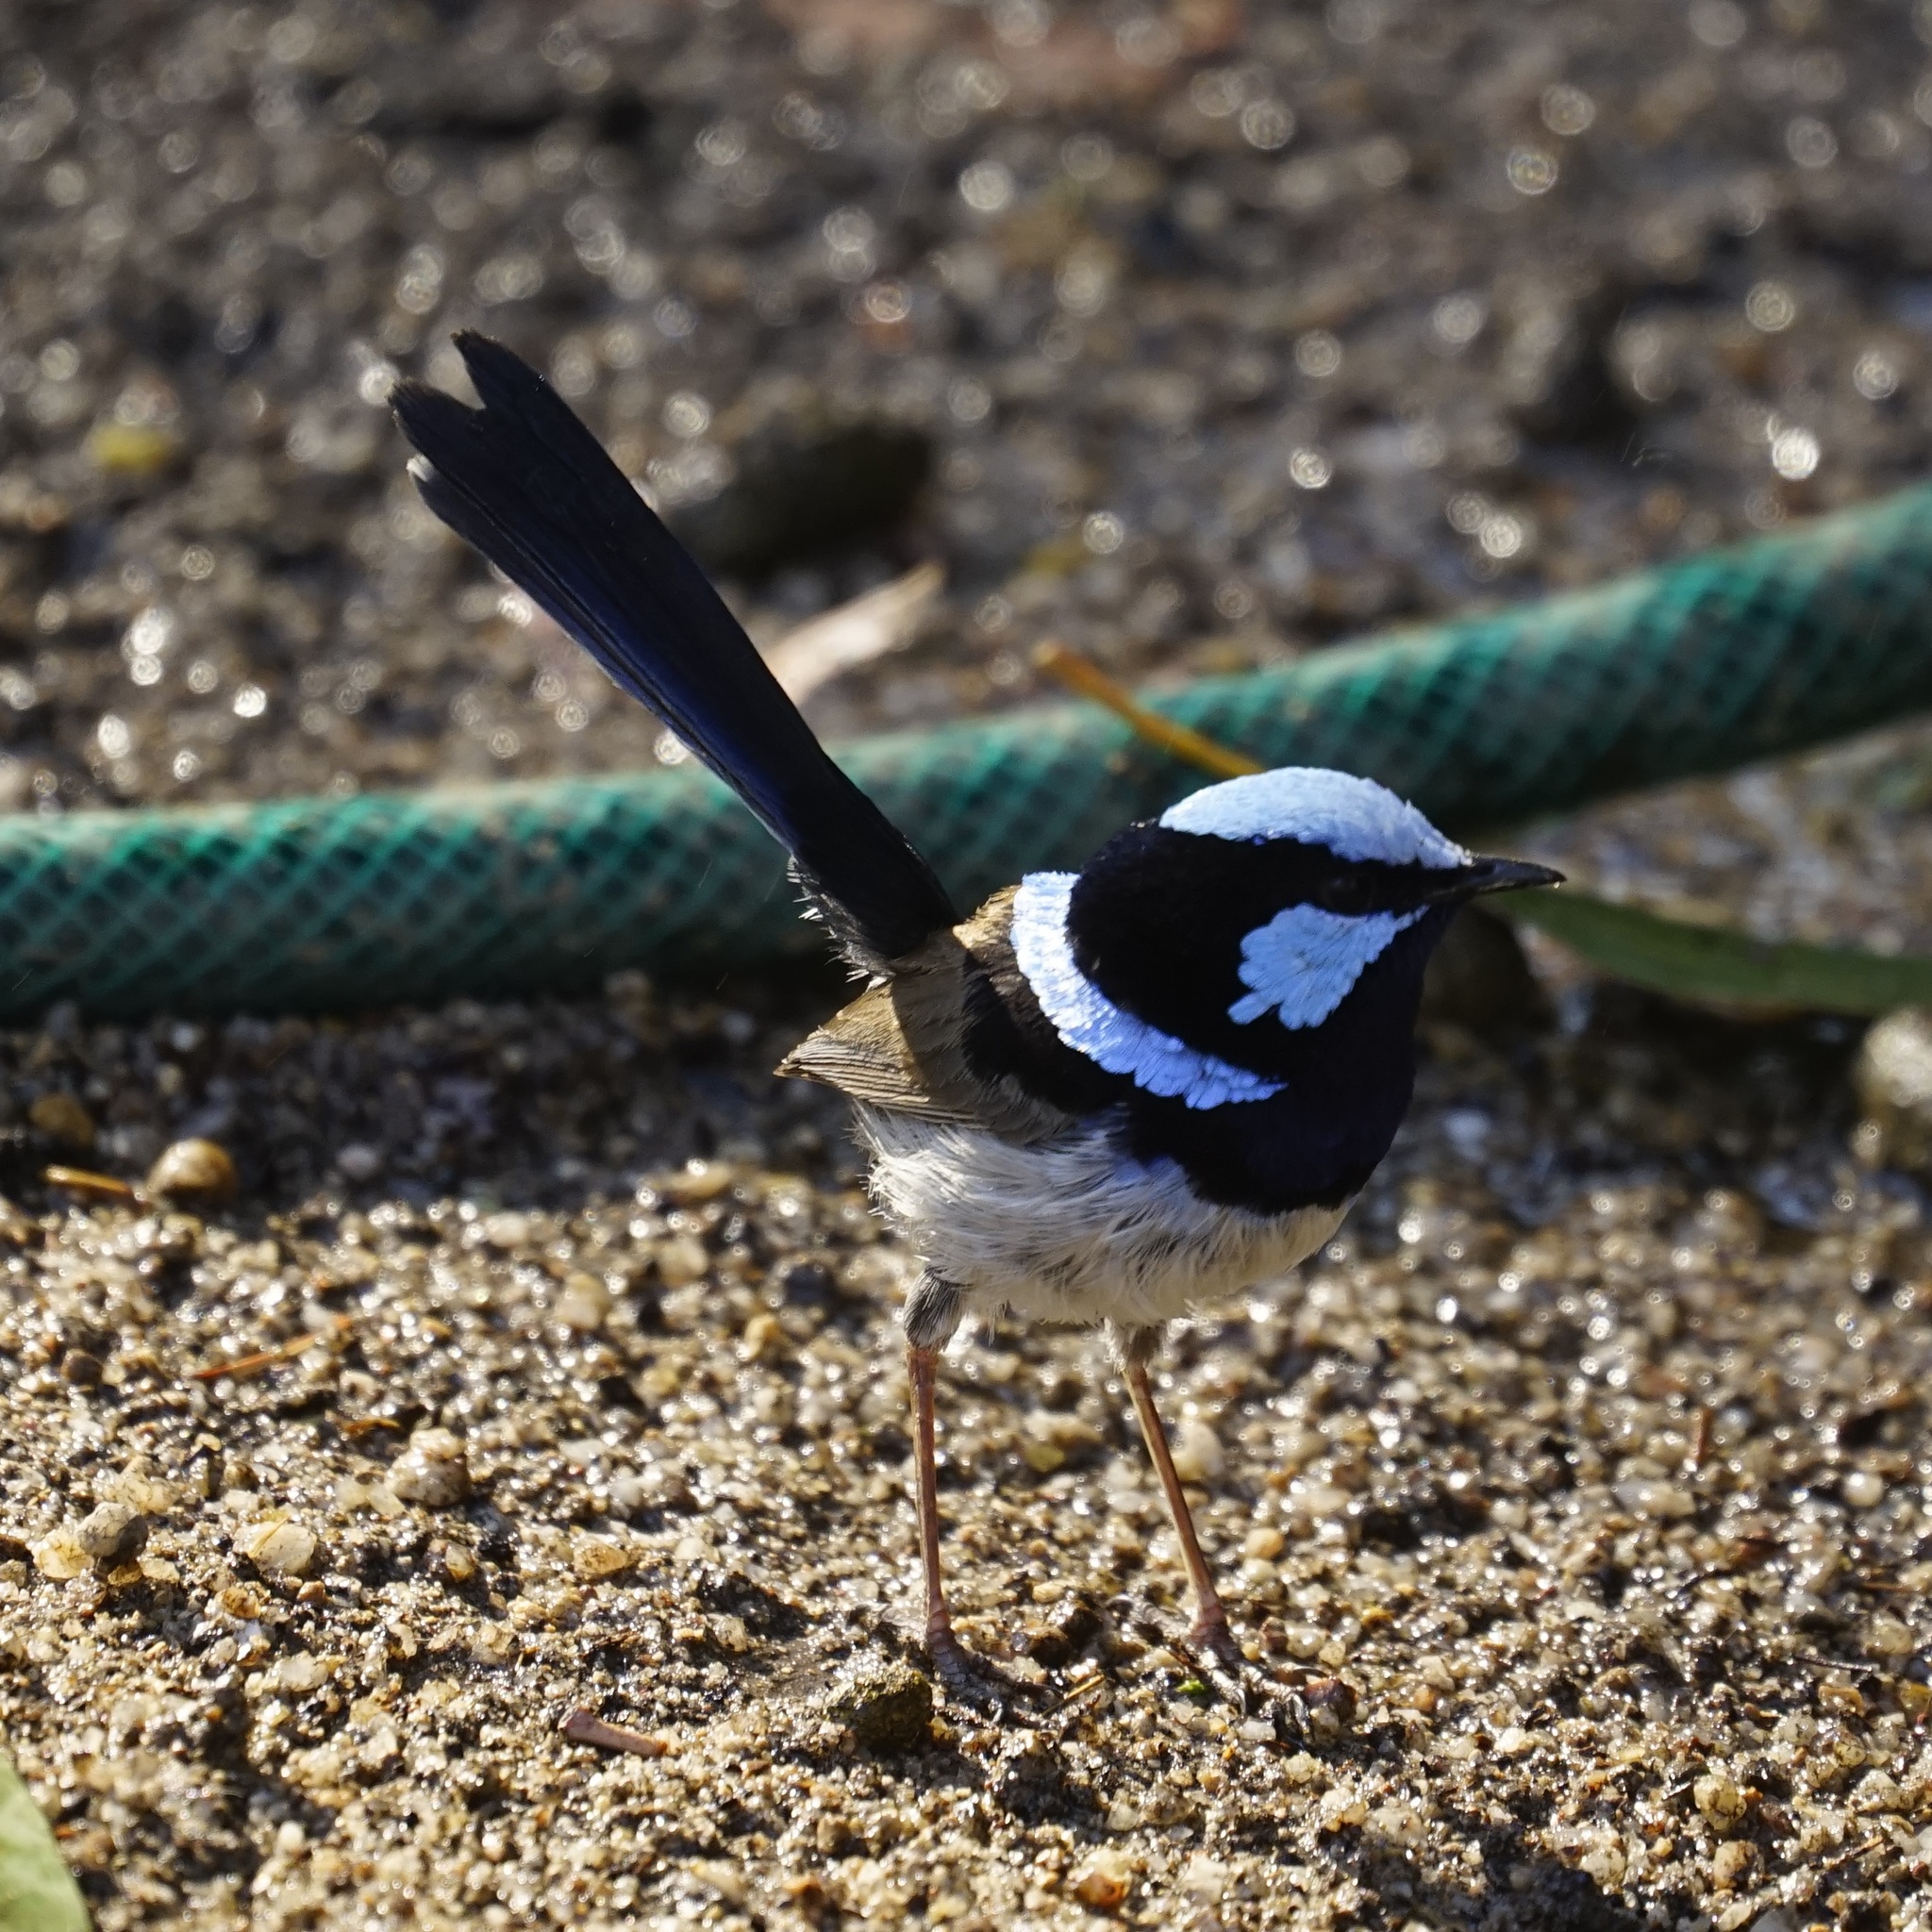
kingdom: Animalia
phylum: Chordata
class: Aves
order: Passeriformes
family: Maluridae
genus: Malurus
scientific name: Malurus cyaneus
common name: Superb fairywren
